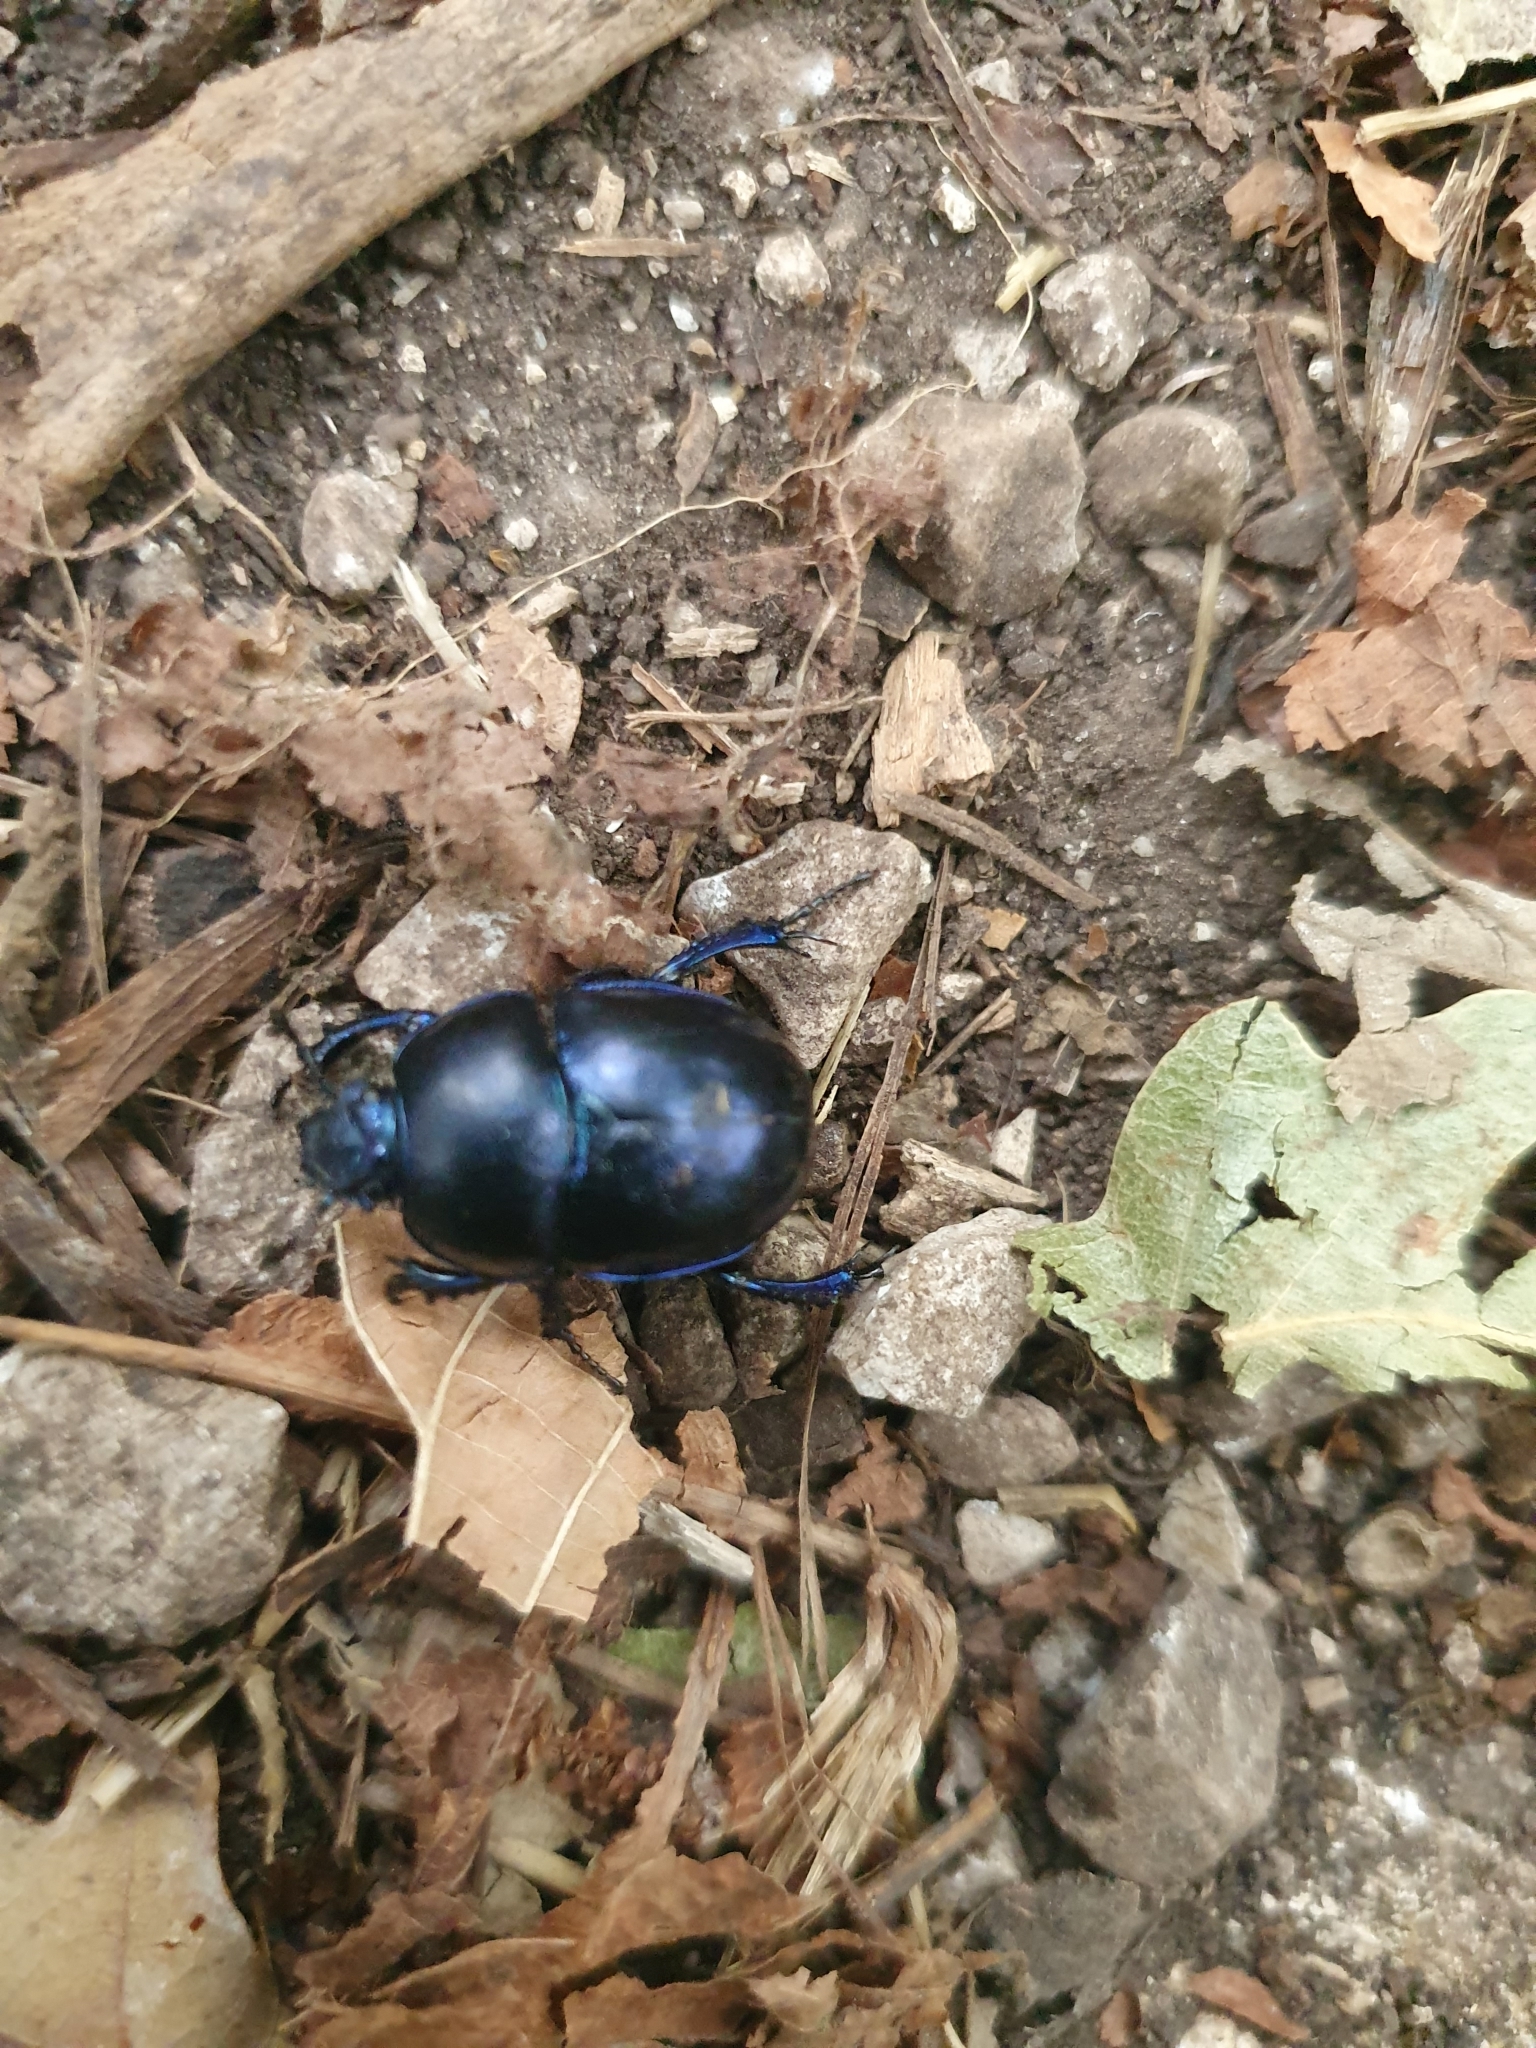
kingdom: Animalia
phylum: Arthropoda
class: Insecta
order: Coleoptera
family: Geotrupidae
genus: Trypocopris
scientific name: Trypocopris vernalis
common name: Spring dumbledor
